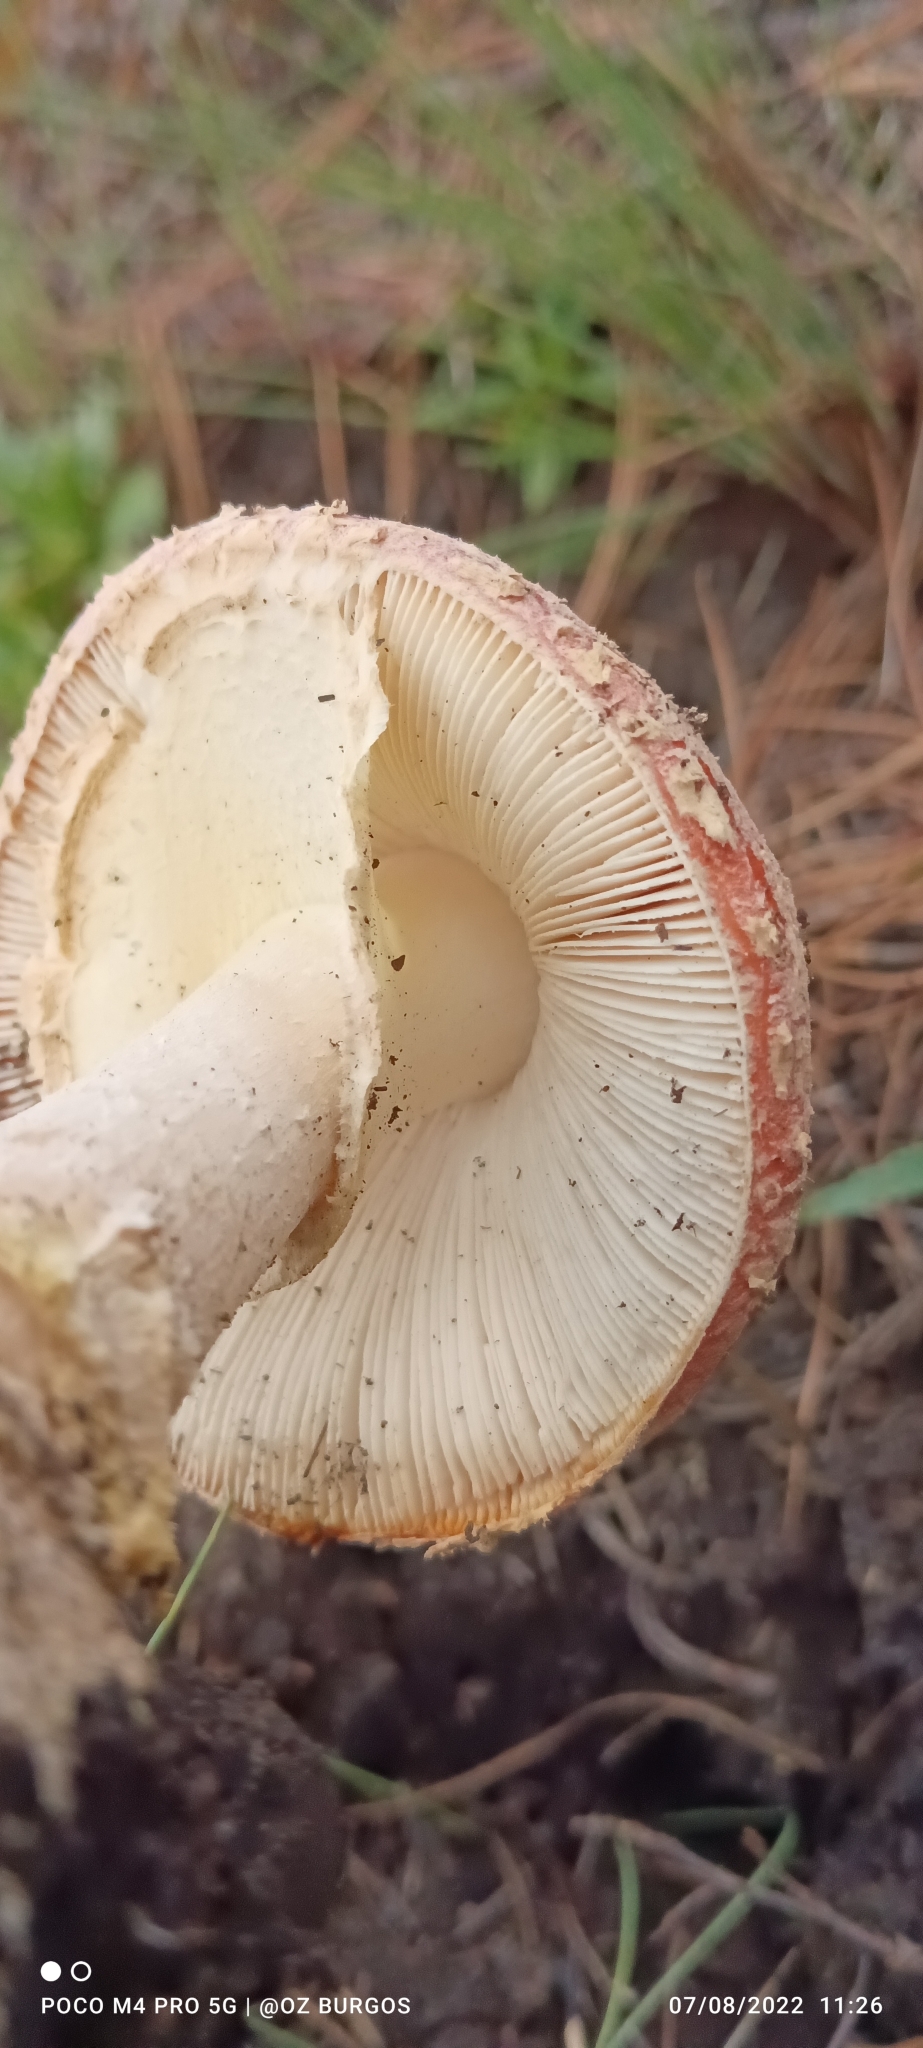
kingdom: Fungi
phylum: Basidiomycota
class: Agaricomycetes
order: Agaricales
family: Amanitaceae
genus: Amanita
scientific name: Amanita muscaria
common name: Fly agaric
